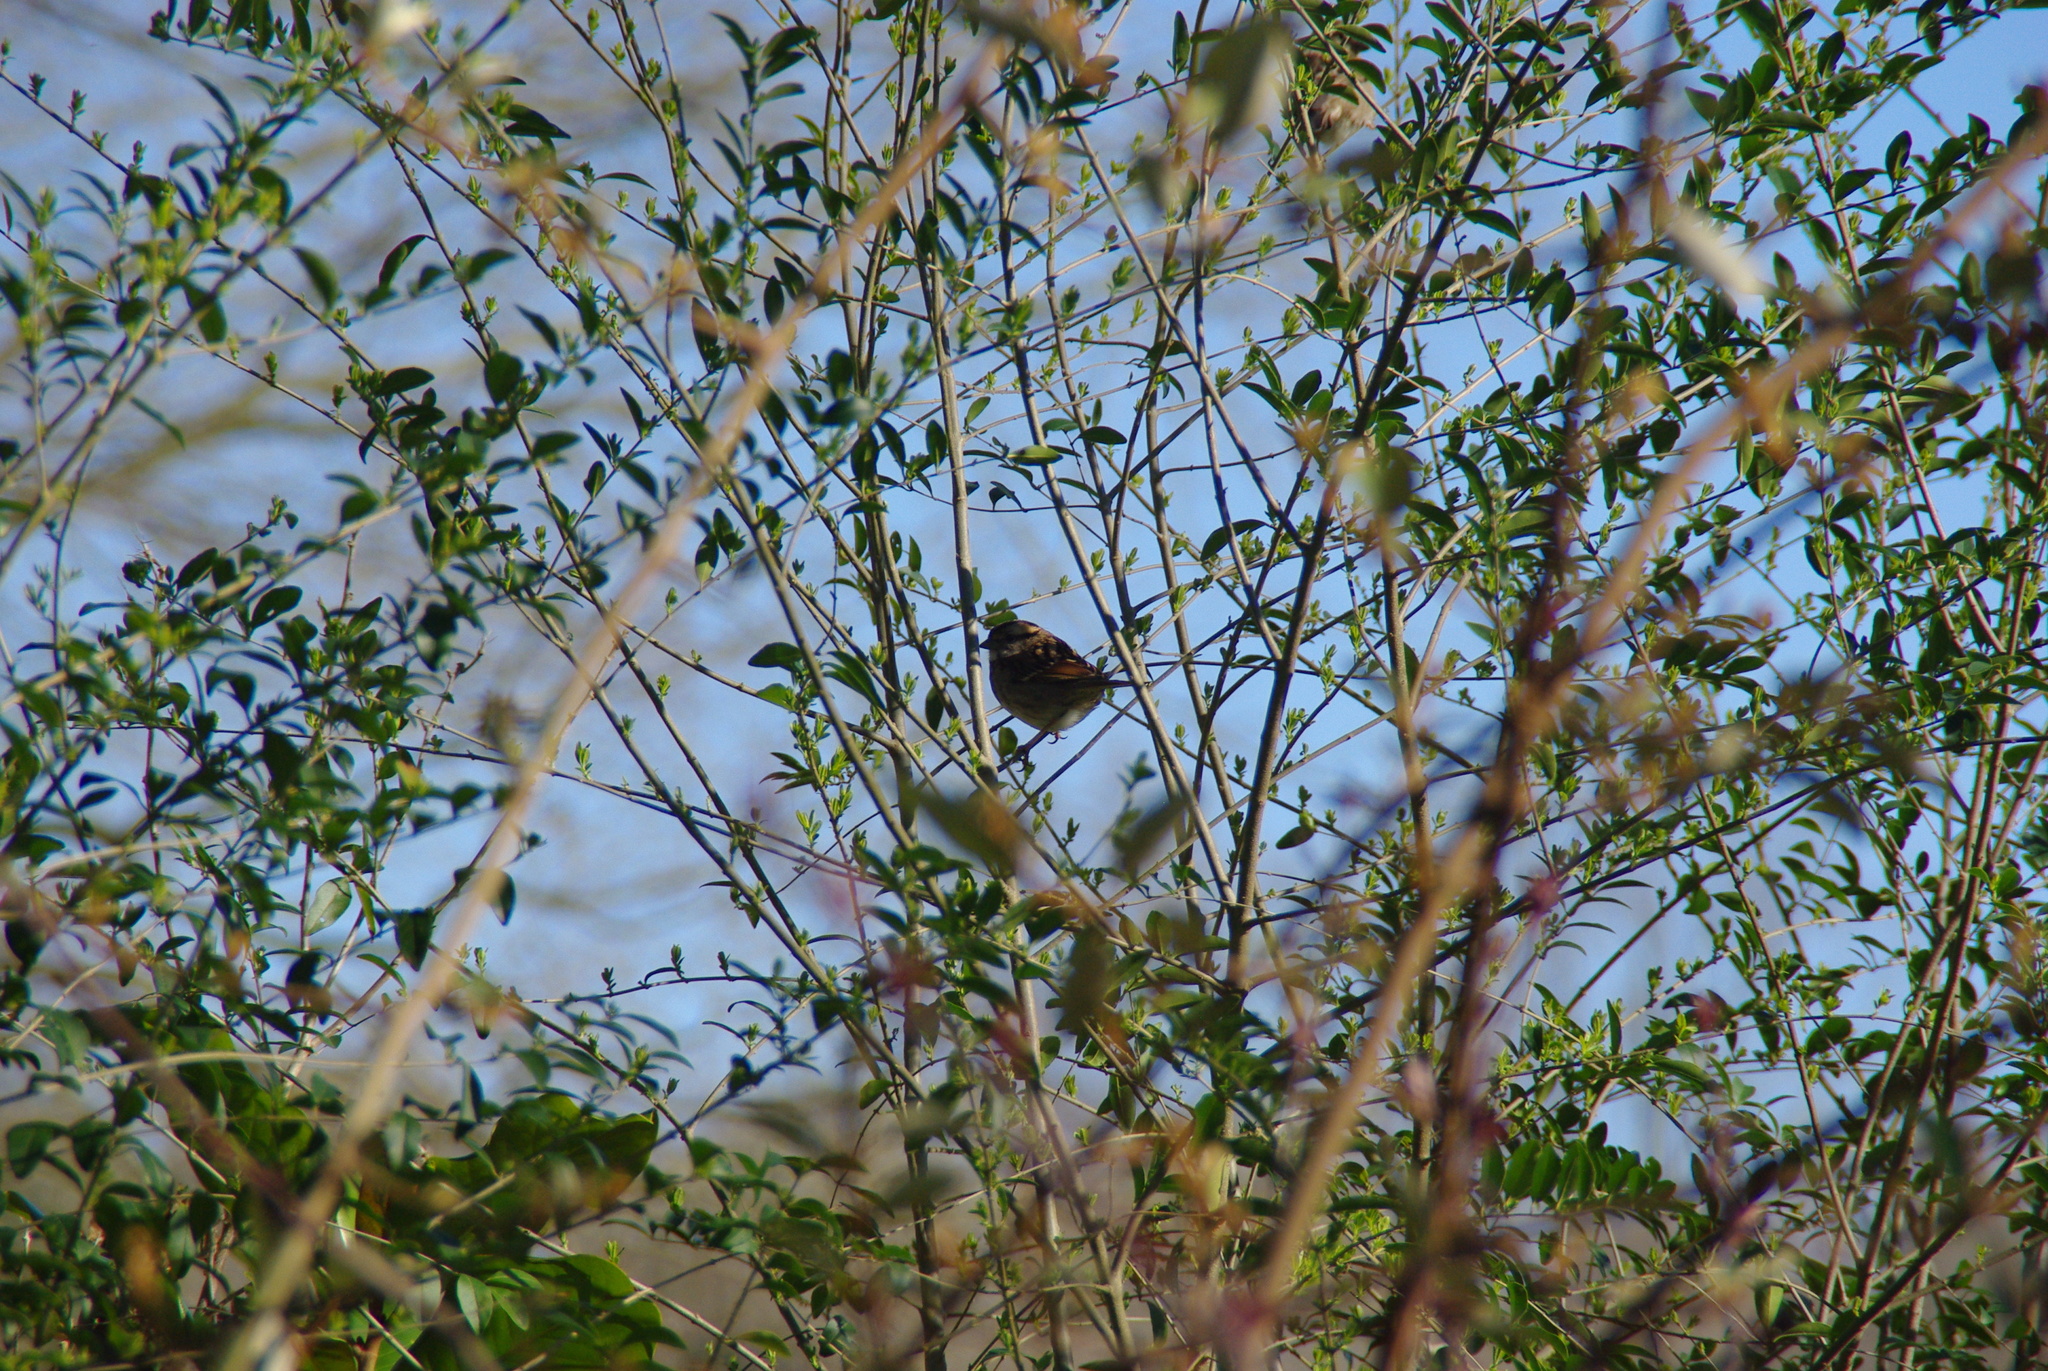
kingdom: Animalia
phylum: Chordata
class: Aves
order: Passeriformes
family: Passerellidae
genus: Zonotrichia
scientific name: Zonotrichia albicollis
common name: White-throated sparrow
